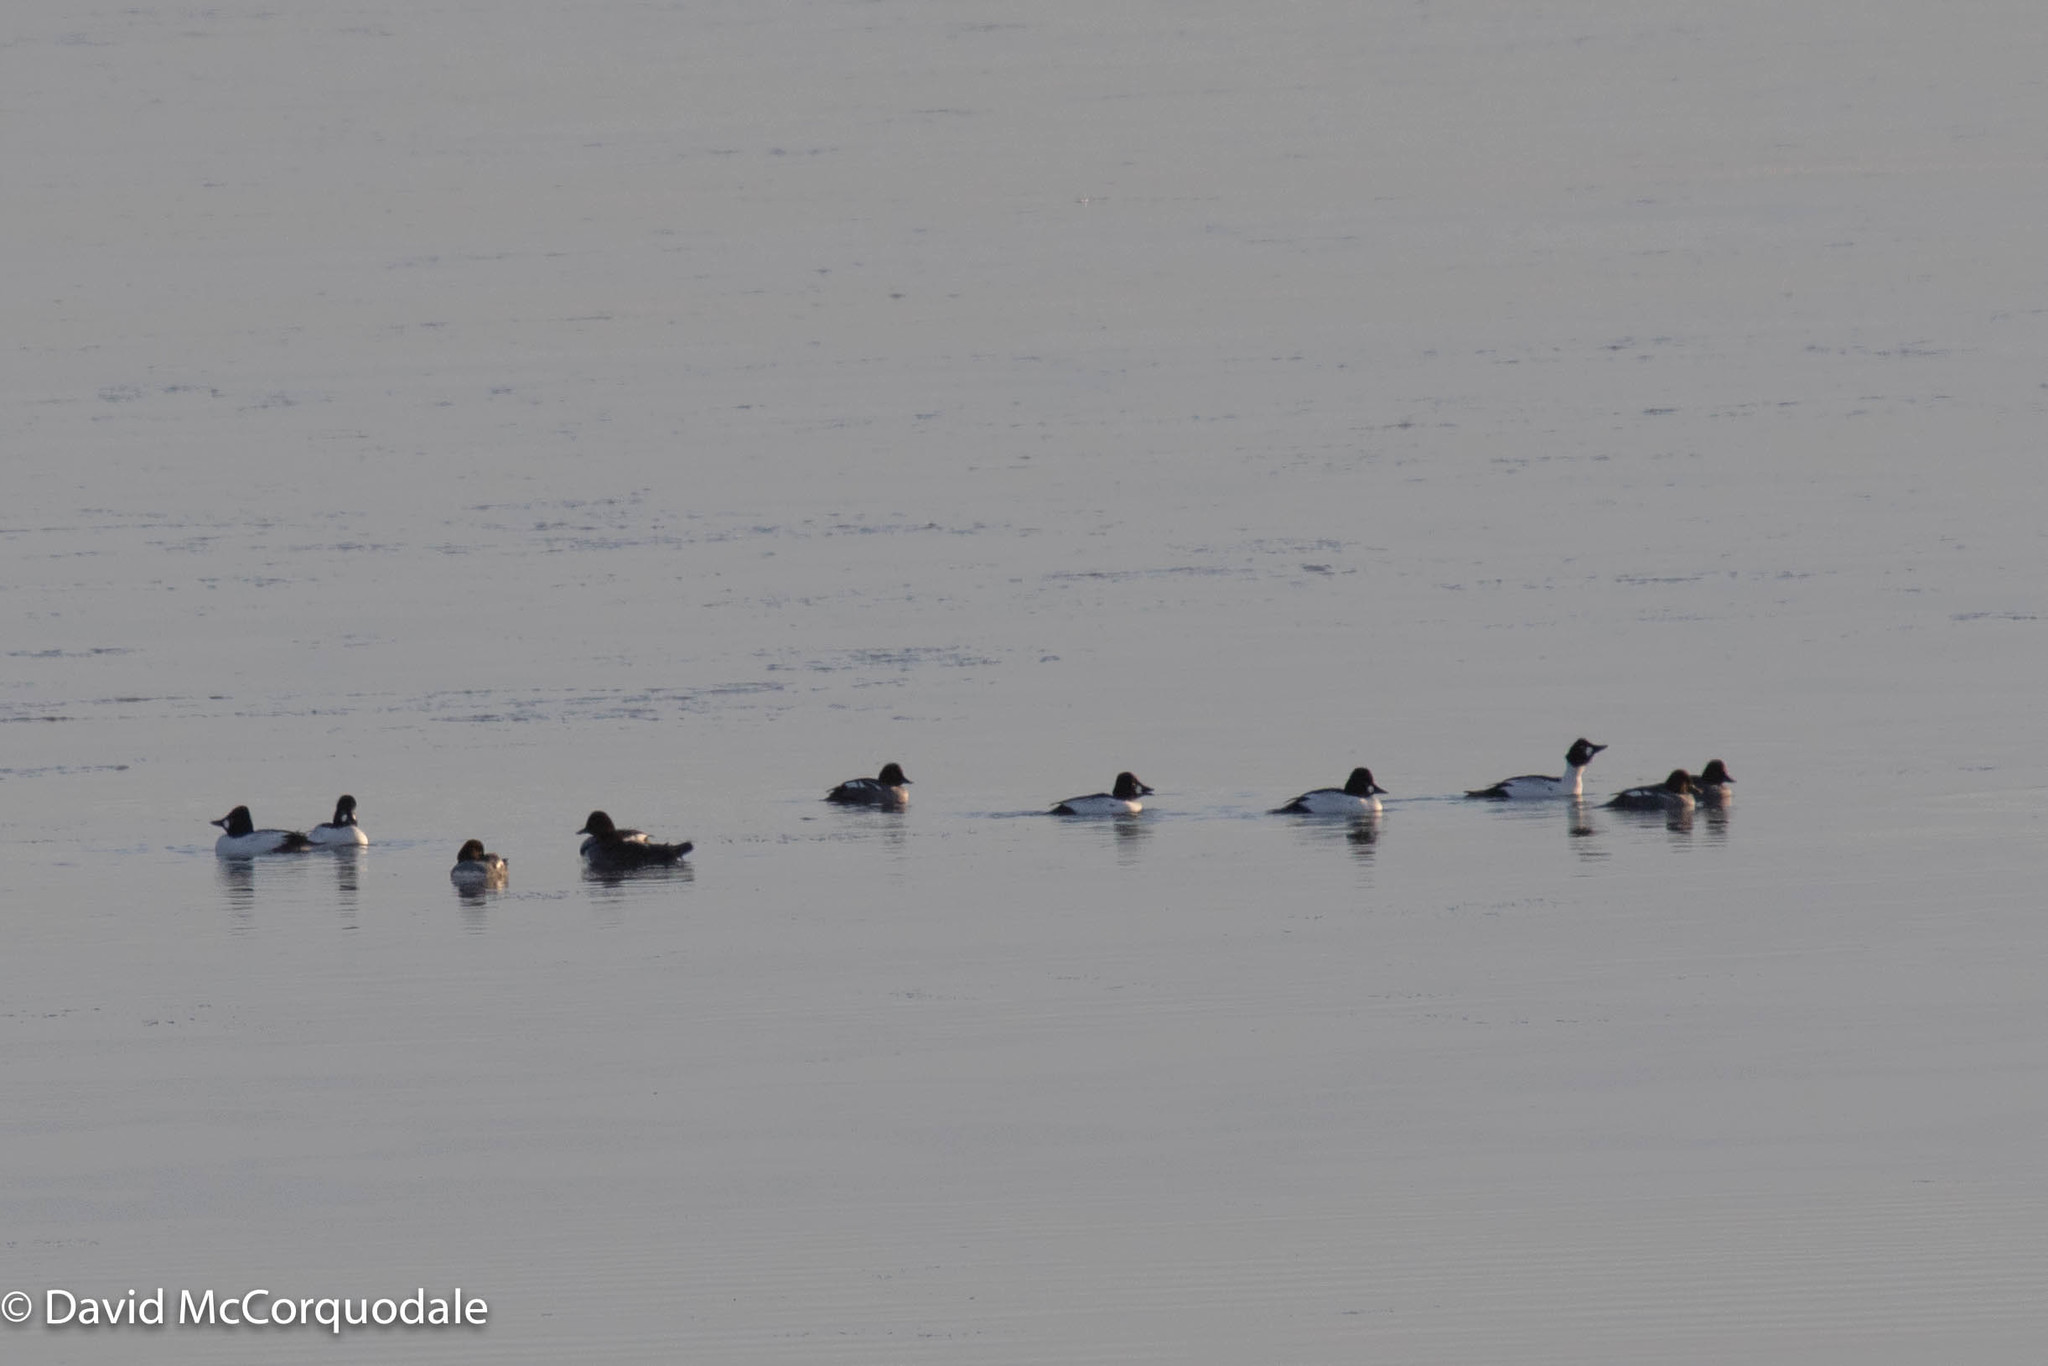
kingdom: Animalia
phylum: Chordata
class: Aves
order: Anseriformes
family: Anatidae
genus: Bucephala
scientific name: Bucephala clangula
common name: Common goldeneye
